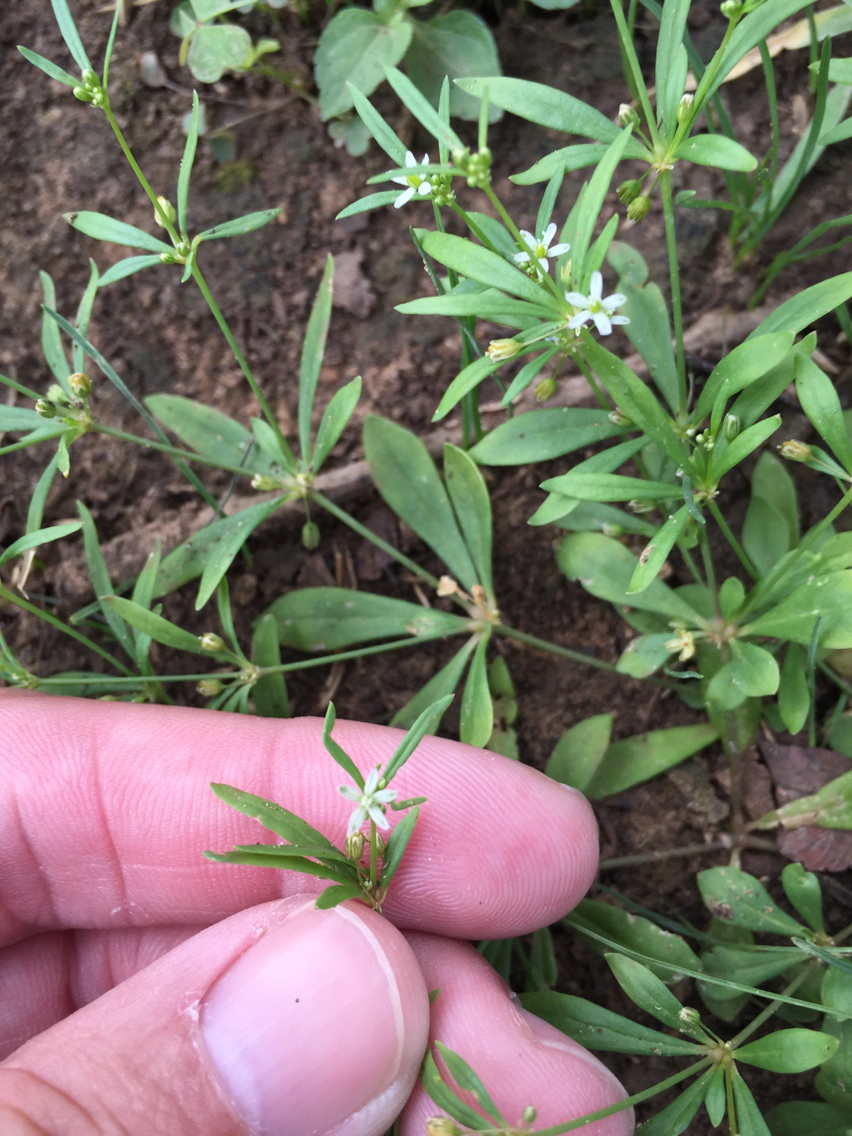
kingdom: Plantae
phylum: Tracheophyta
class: Magnoliopsida
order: Caryophyllales
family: Molluginaceae
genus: Mollugo
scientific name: Mollugo verticillata
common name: Green carpetweed
